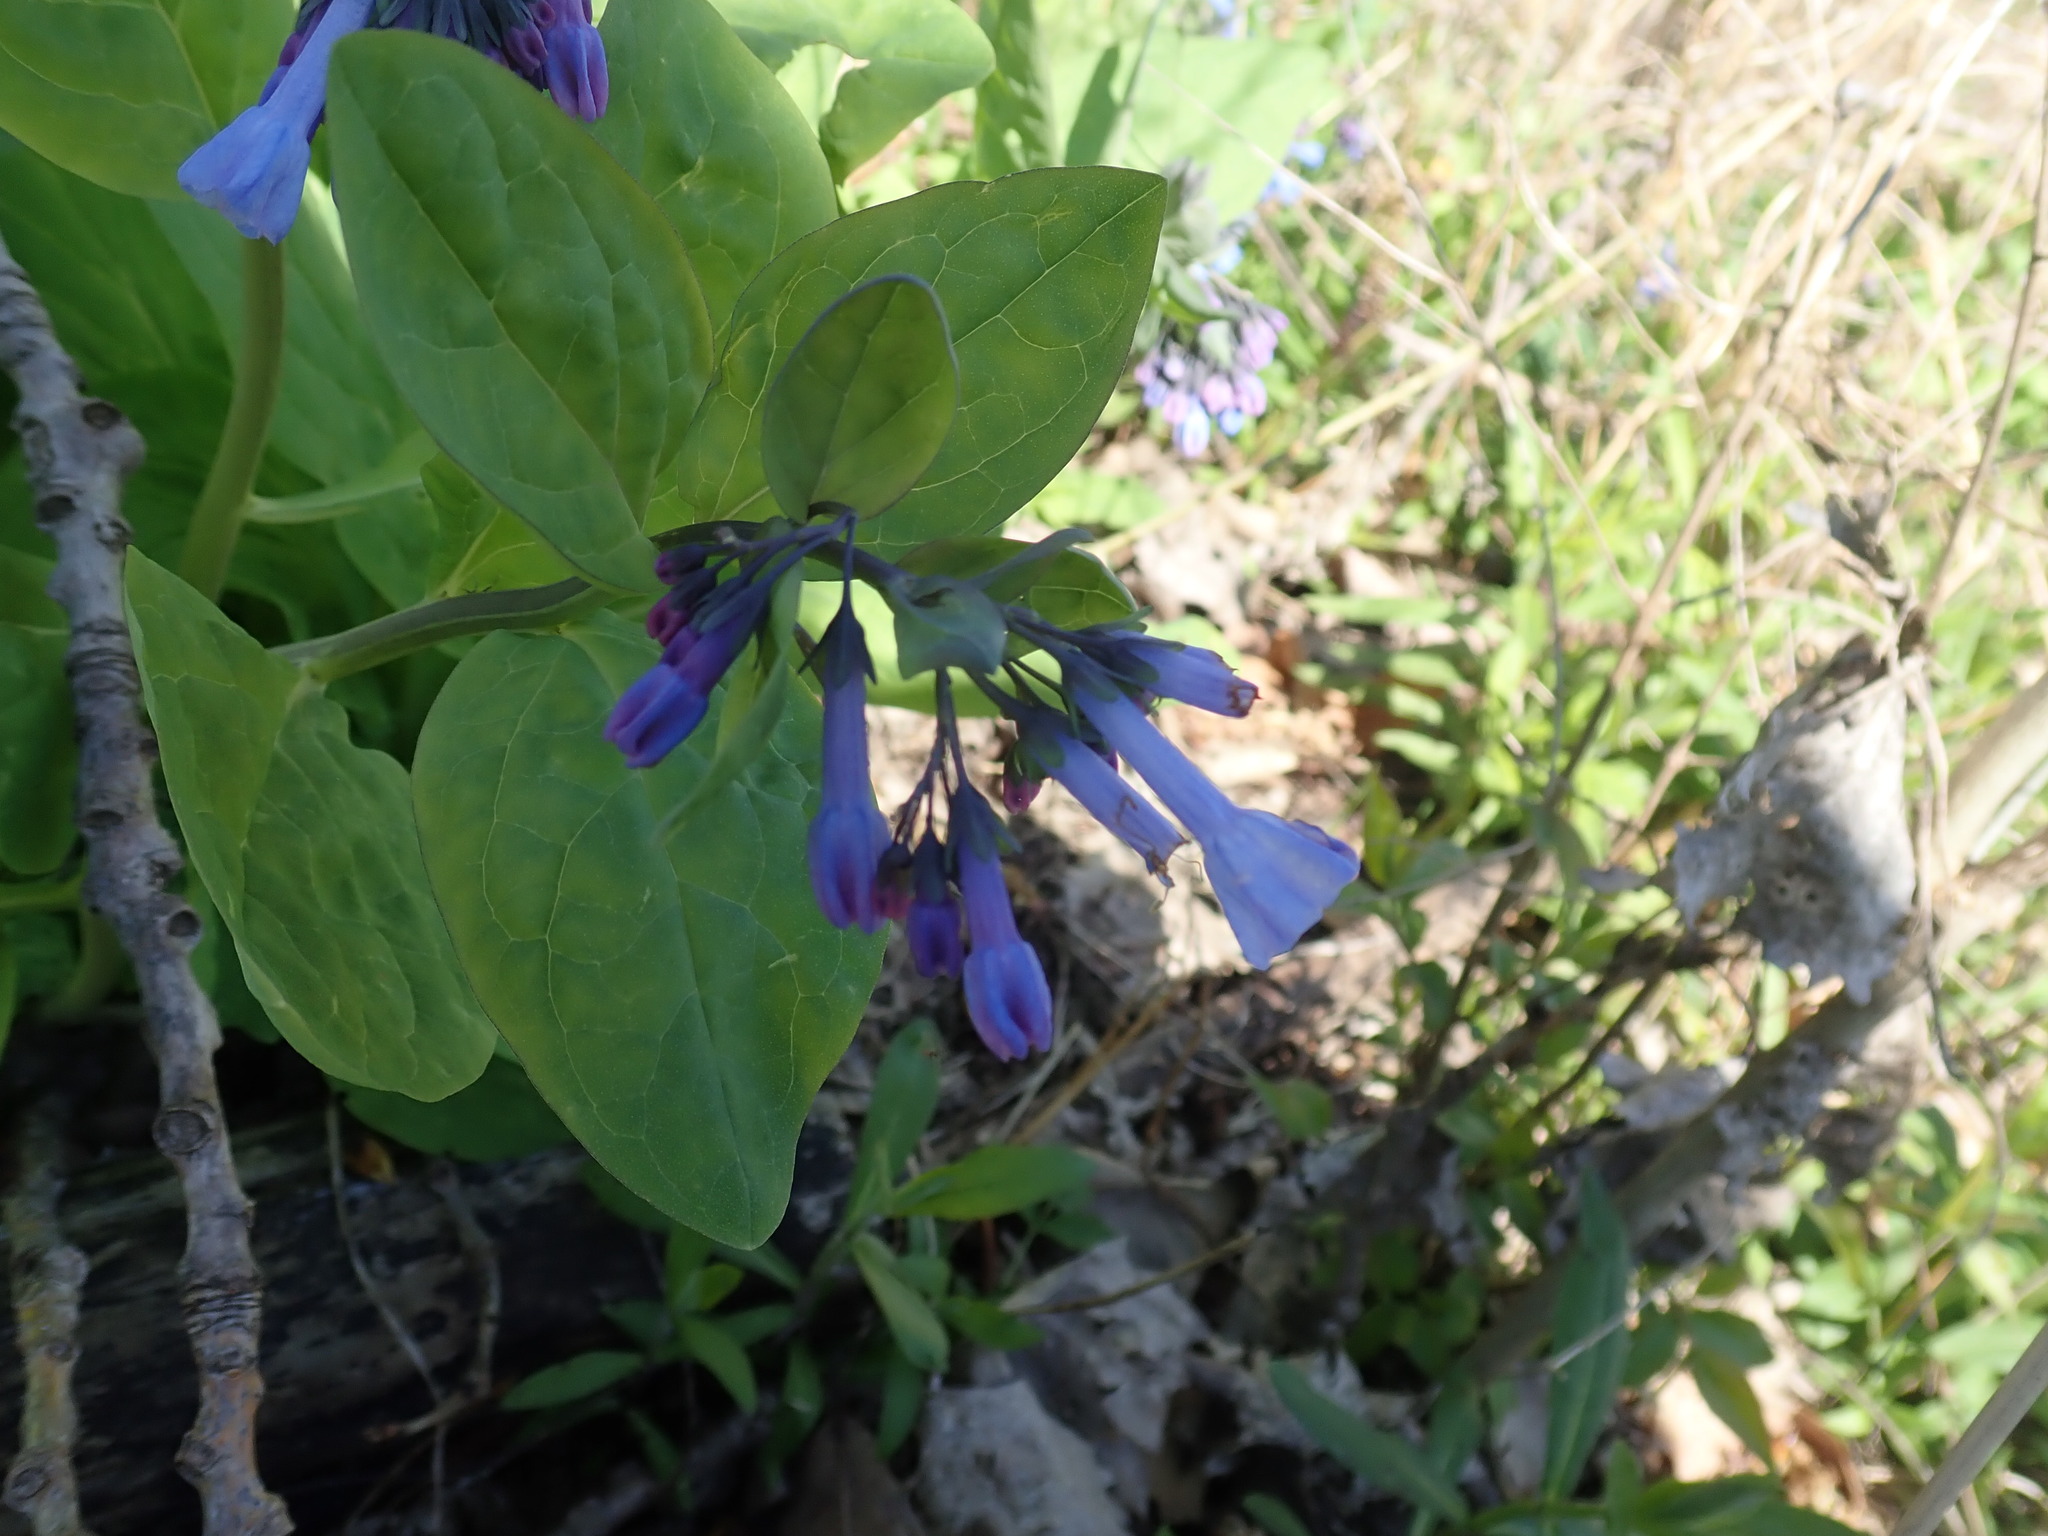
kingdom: Plantae
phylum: Tracheophyta
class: Magnoliopsida
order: Boraginales
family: Boraginaceae
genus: Mertensia
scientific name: Mertensia virginica
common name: Virginia bluebells
